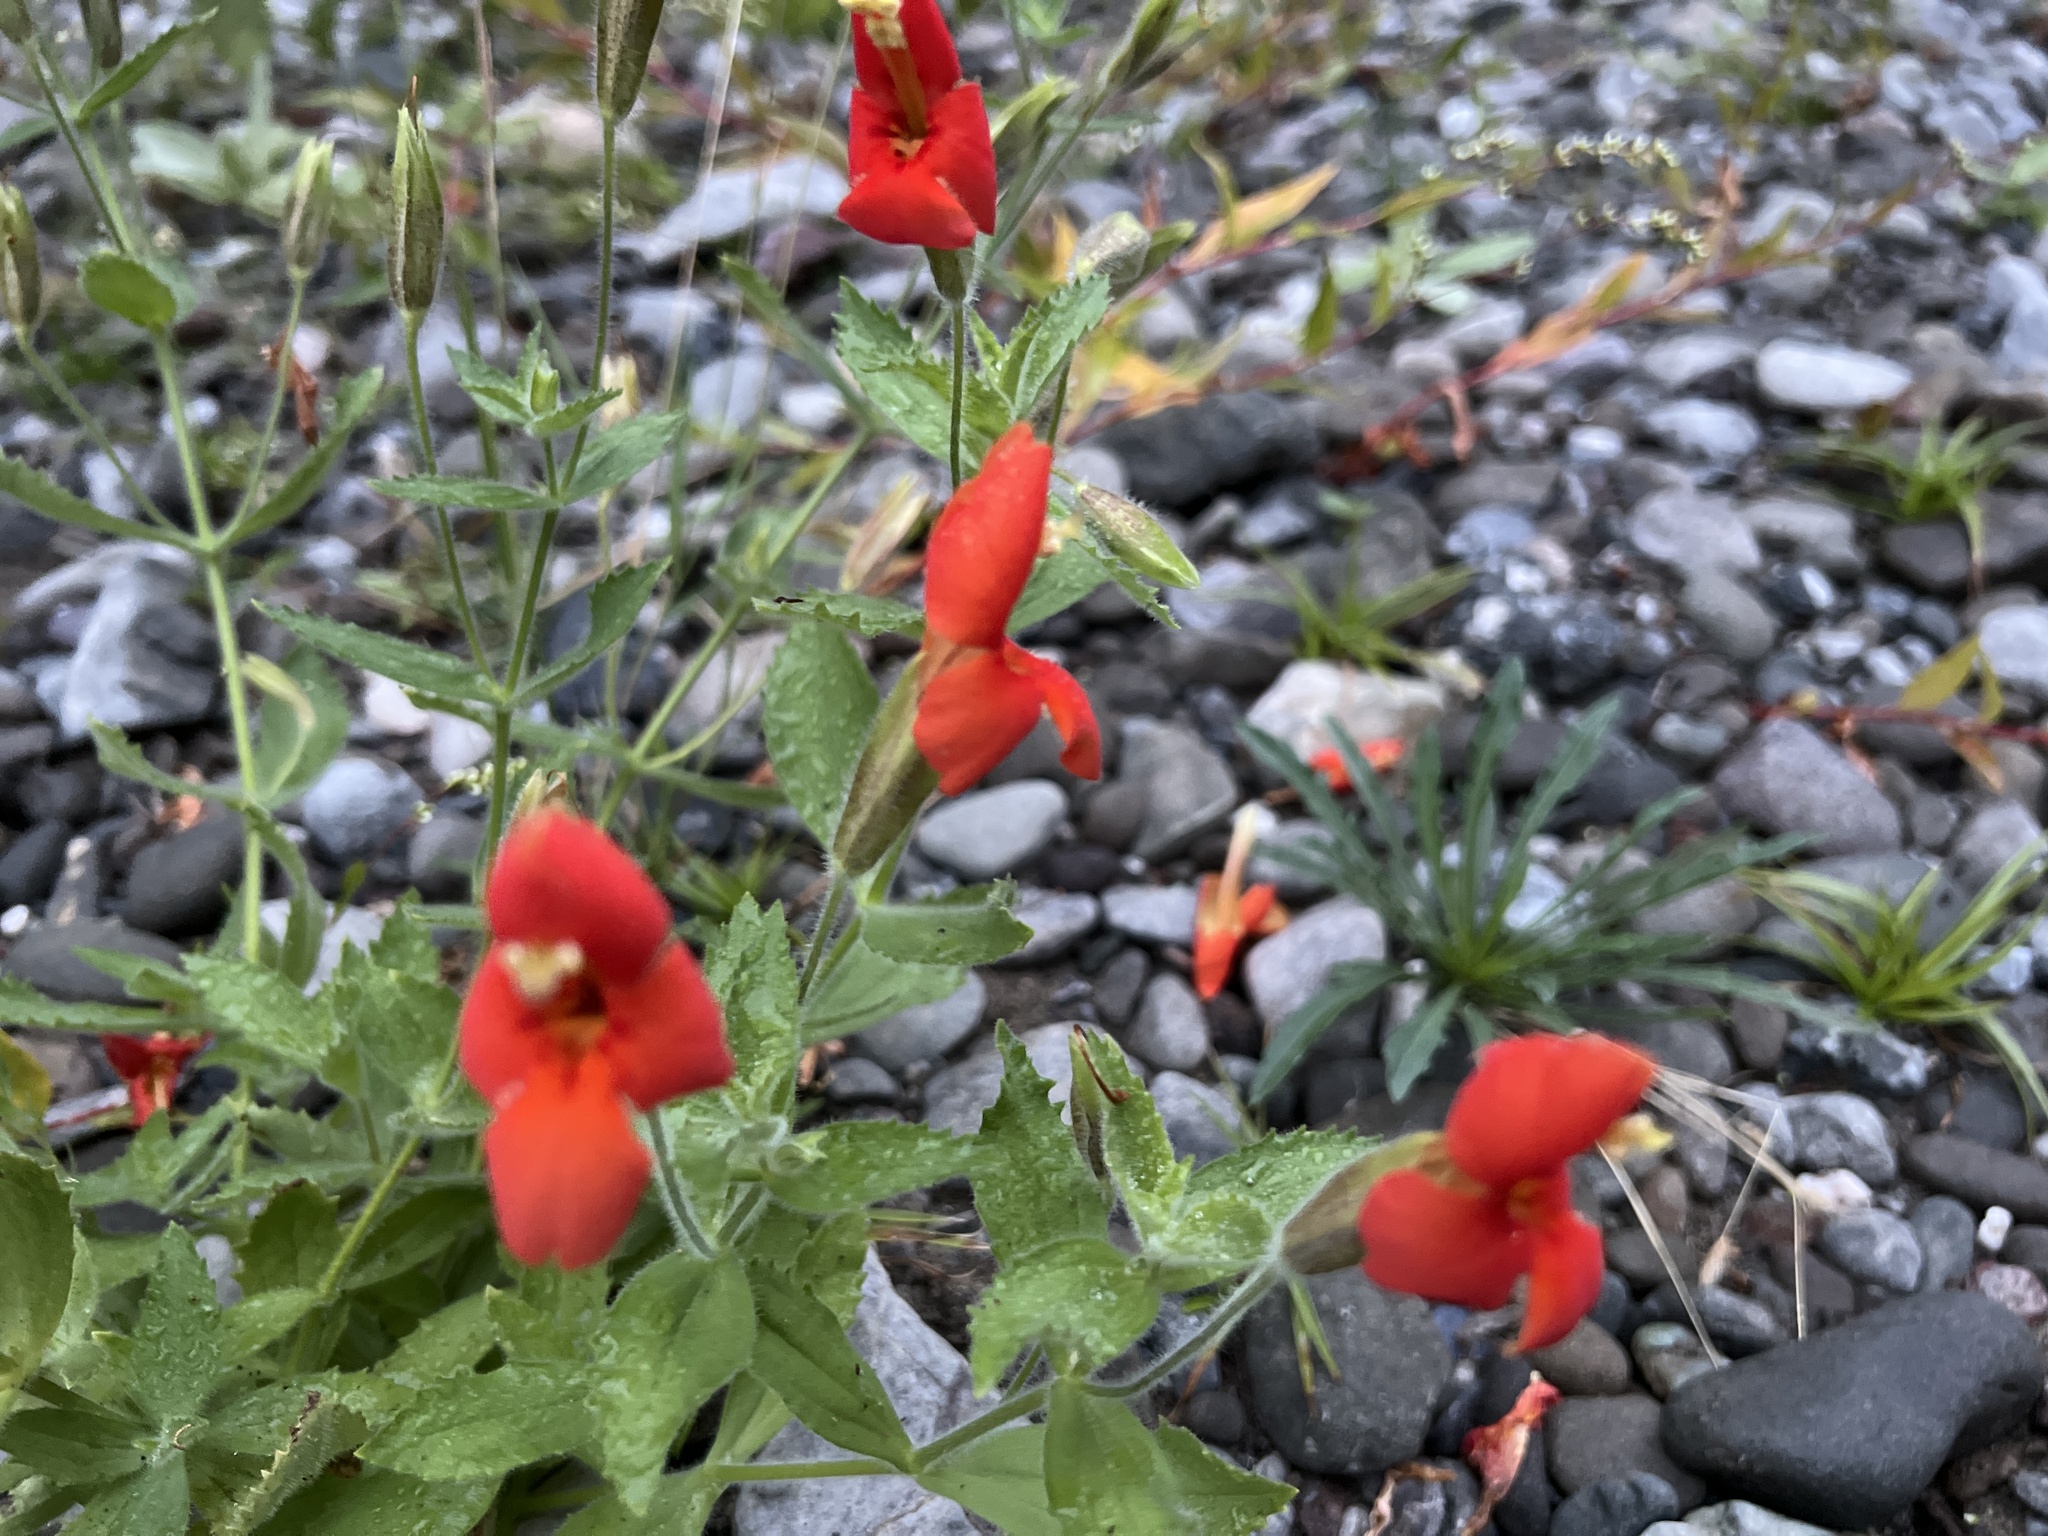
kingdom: Plantae
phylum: Tracheophyta
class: Magnoliopsida
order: Lamiales
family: Phrymaceae
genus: Erythranthe
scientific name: Erythranthe cardinalis
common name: Scarlet monkey-flower
